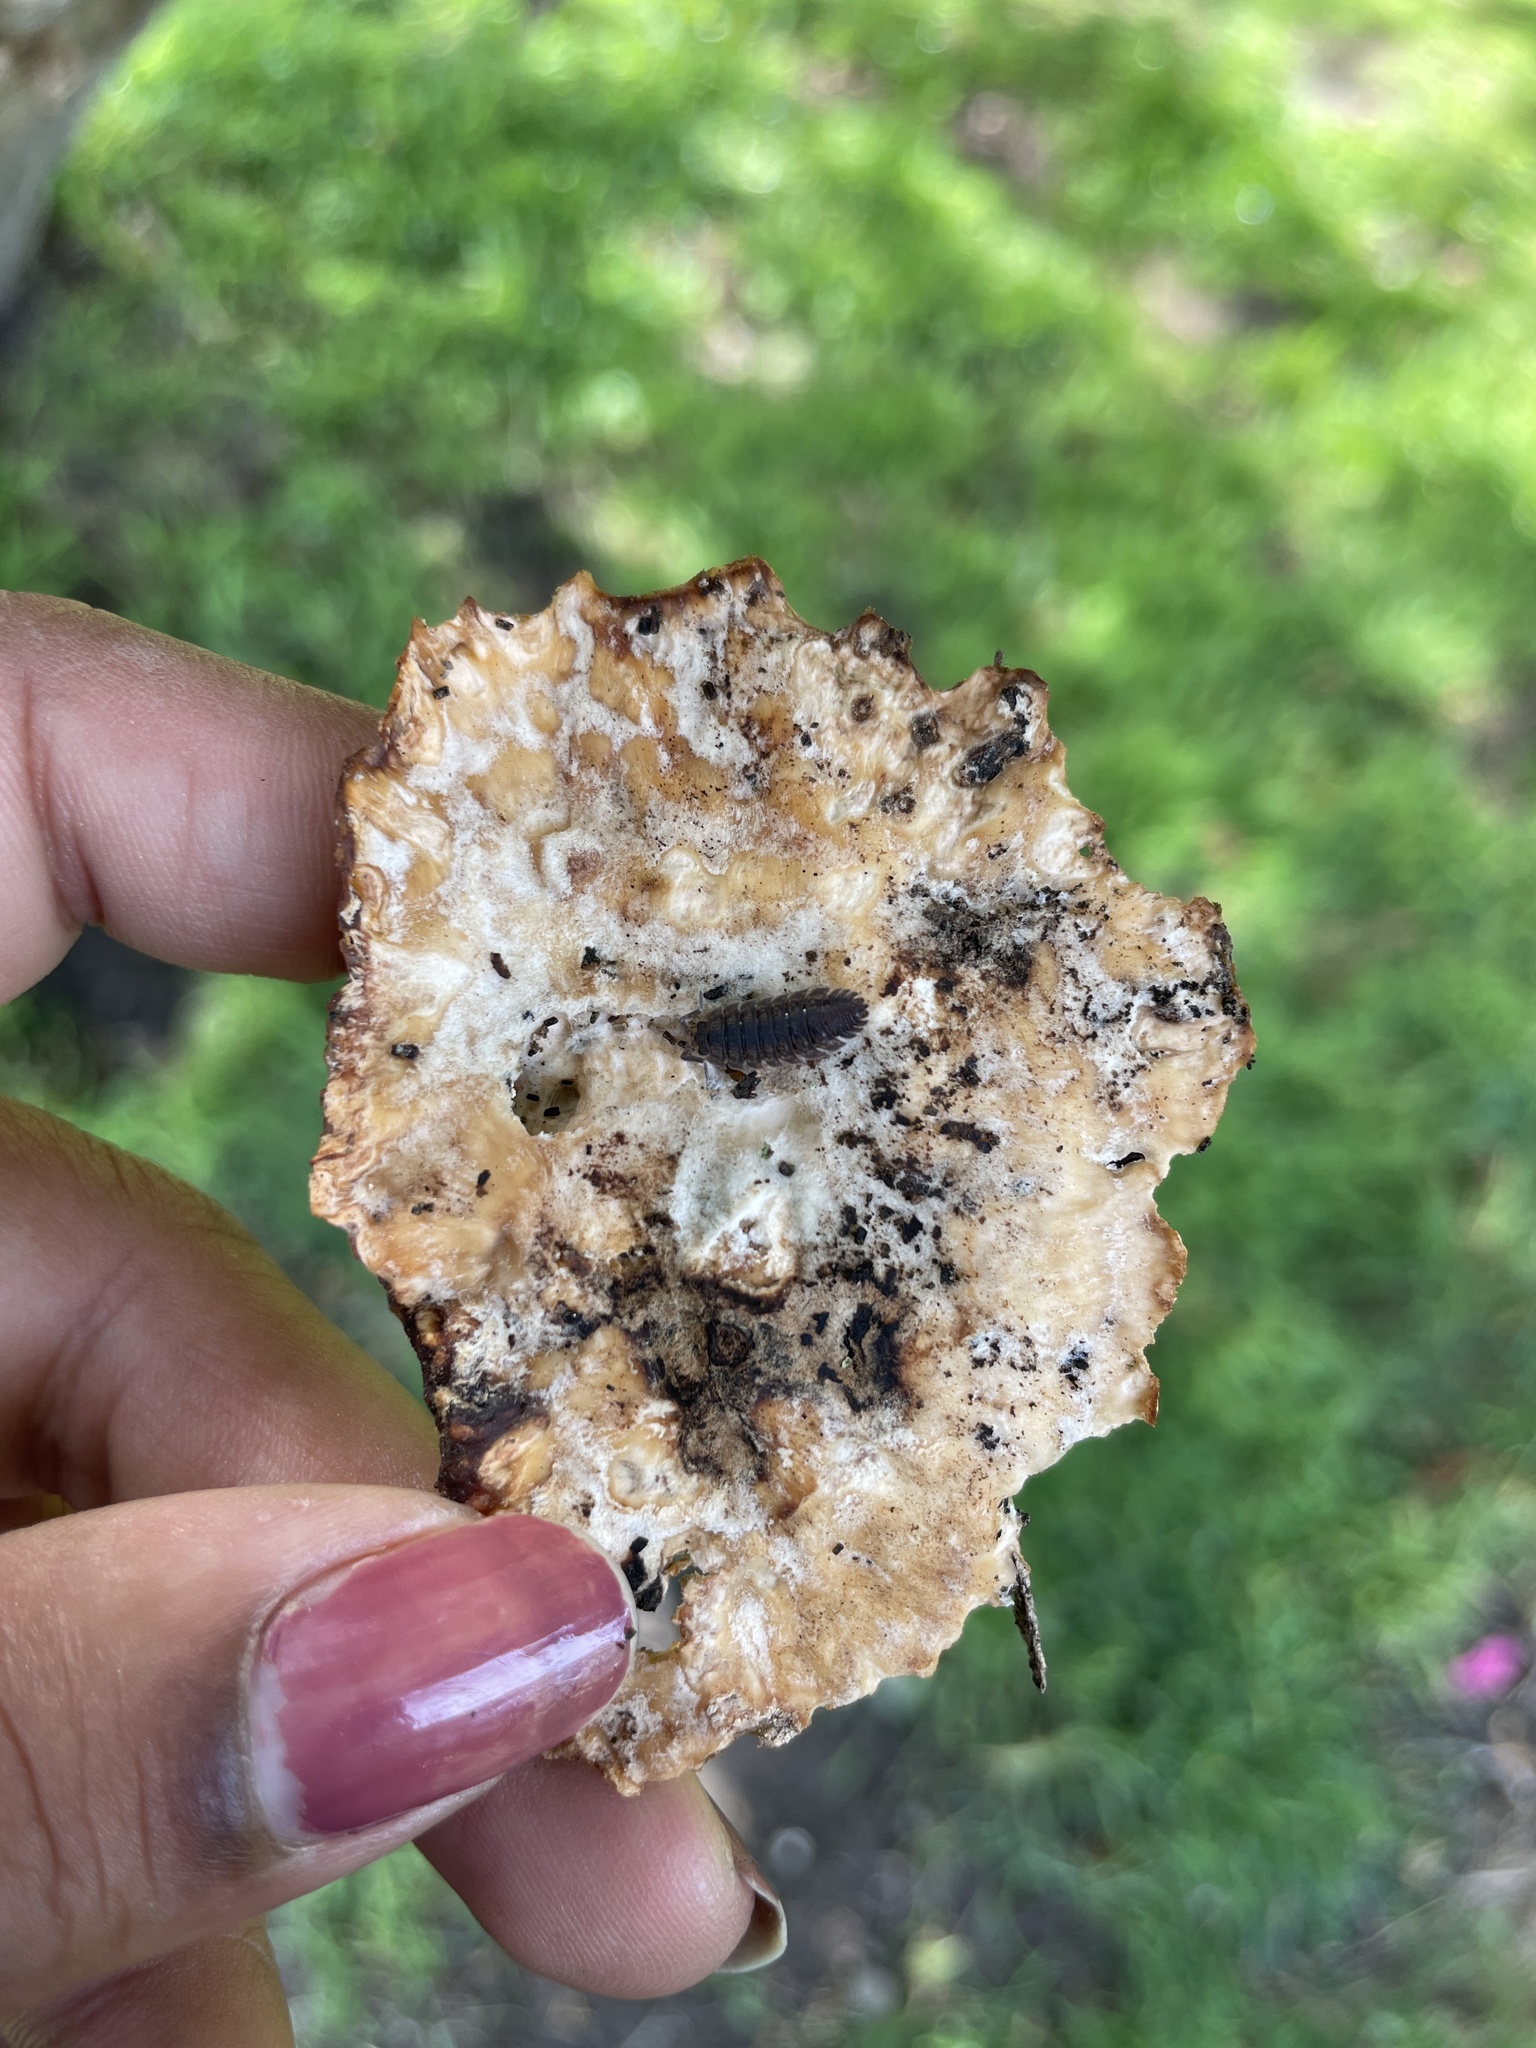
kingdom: Fungi
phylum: Basidiomycota
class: Agaricomycetes
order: Polyporales
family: Meruliaceae
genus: Phlebia
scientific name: Phlebia radiata
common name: Wrinkled crust
